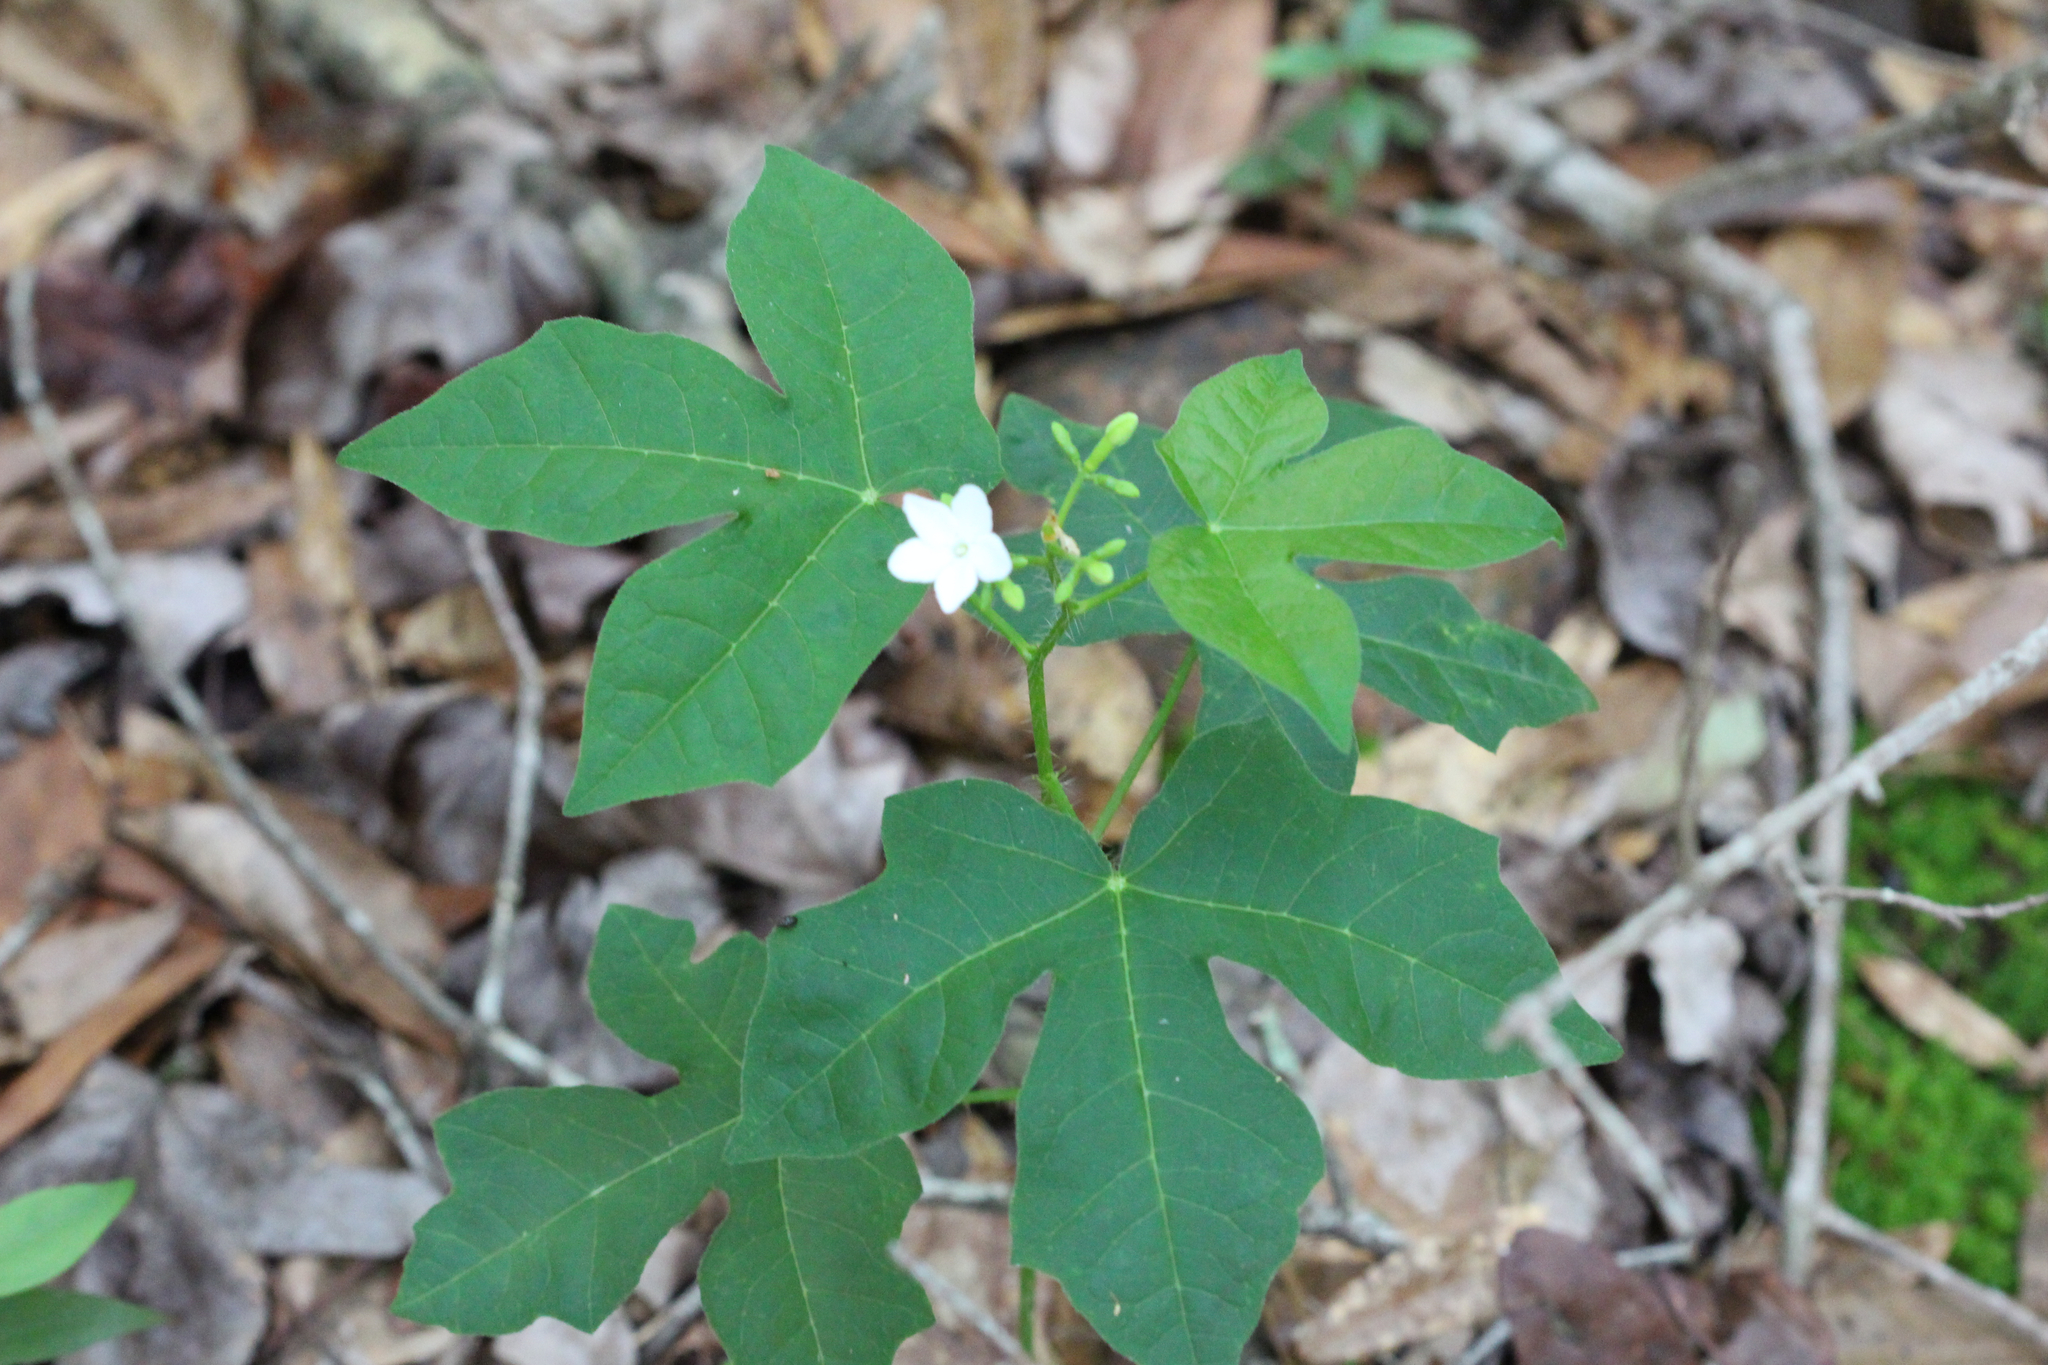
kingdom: Plantae
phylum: Tracheophyta
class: Magnoliopsida
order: Malpighiales
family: Euphorbiaceae
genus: Cnidoscolus
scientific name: Cnidoscolus stimulosus
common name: Bull-nettle
